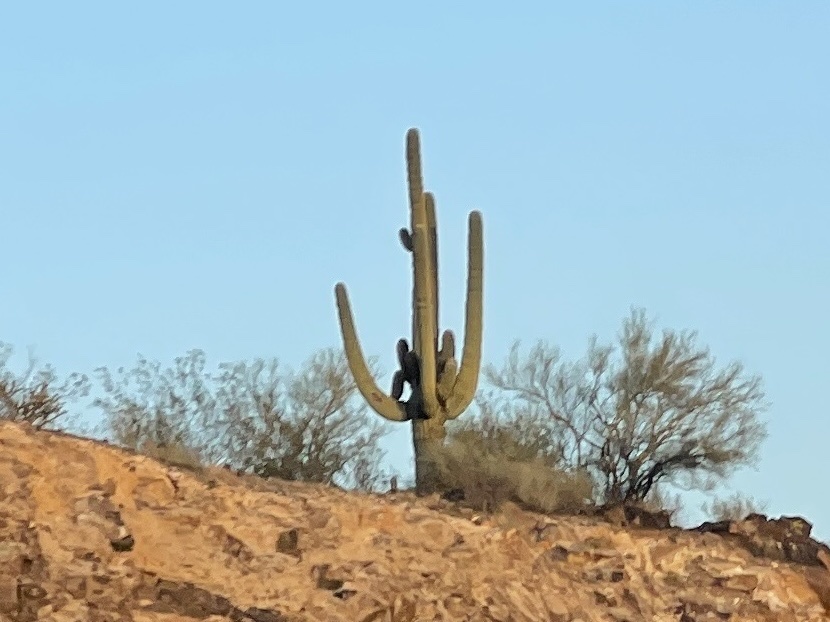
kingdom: Plantae
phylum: Tracheophyta
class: Magnoliopsida
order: Caryophyllales
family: Cactaceae
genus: Carnegiea
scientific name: Carnegiea gigantea
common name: Saguaro
